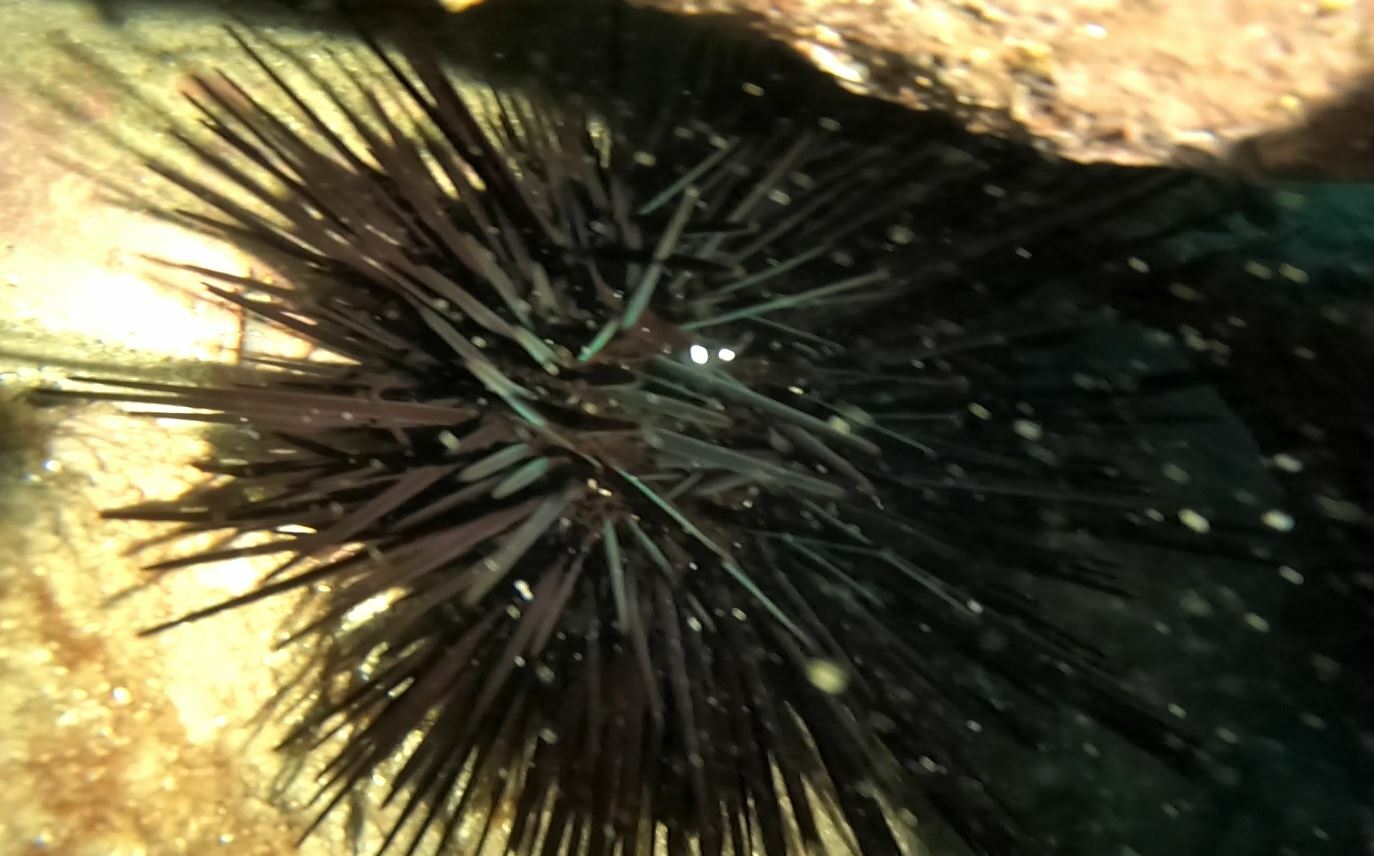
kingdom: Animalia
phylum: Echinodermata
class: Echinoidea
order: Diadematoida
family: Diadematidae
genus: Centrostephanus
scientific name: Centrostephanus rodgersii
